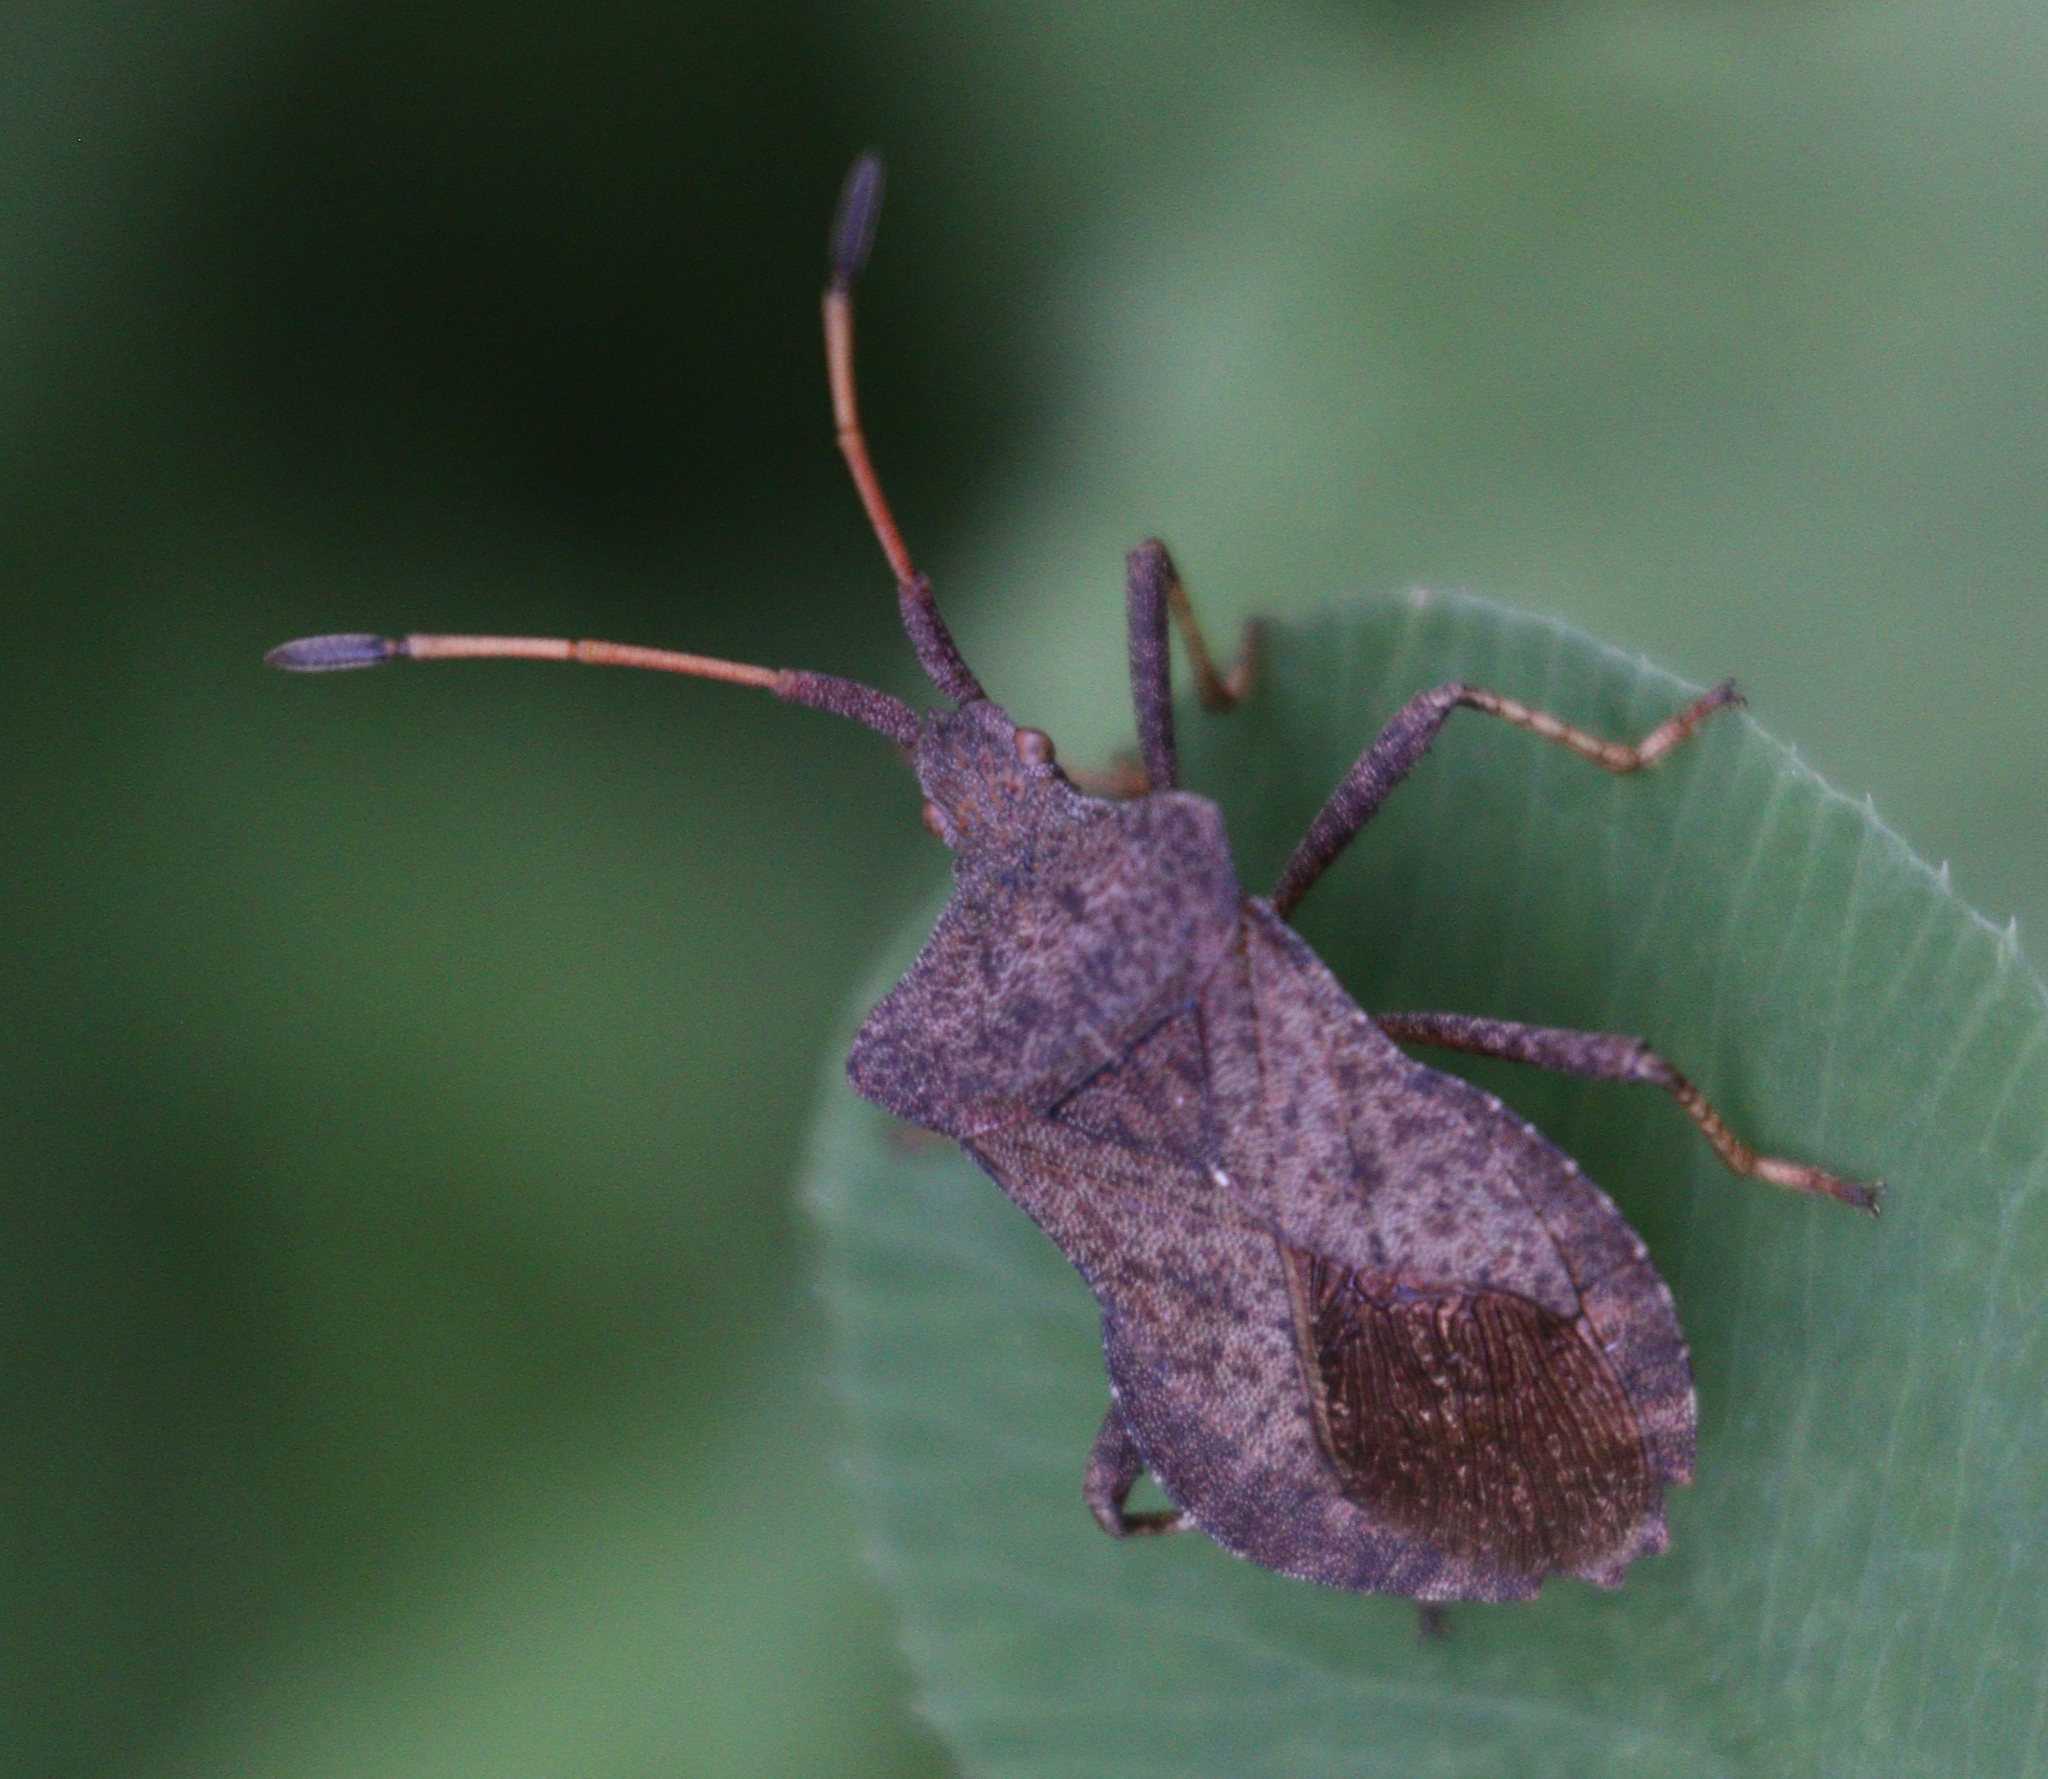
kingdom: Animalia
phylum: Arthropoda
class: Insecta
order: Hemiptera
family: Coreidae
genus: Coreus
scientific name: Coreus marginatus
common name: Dock bug
